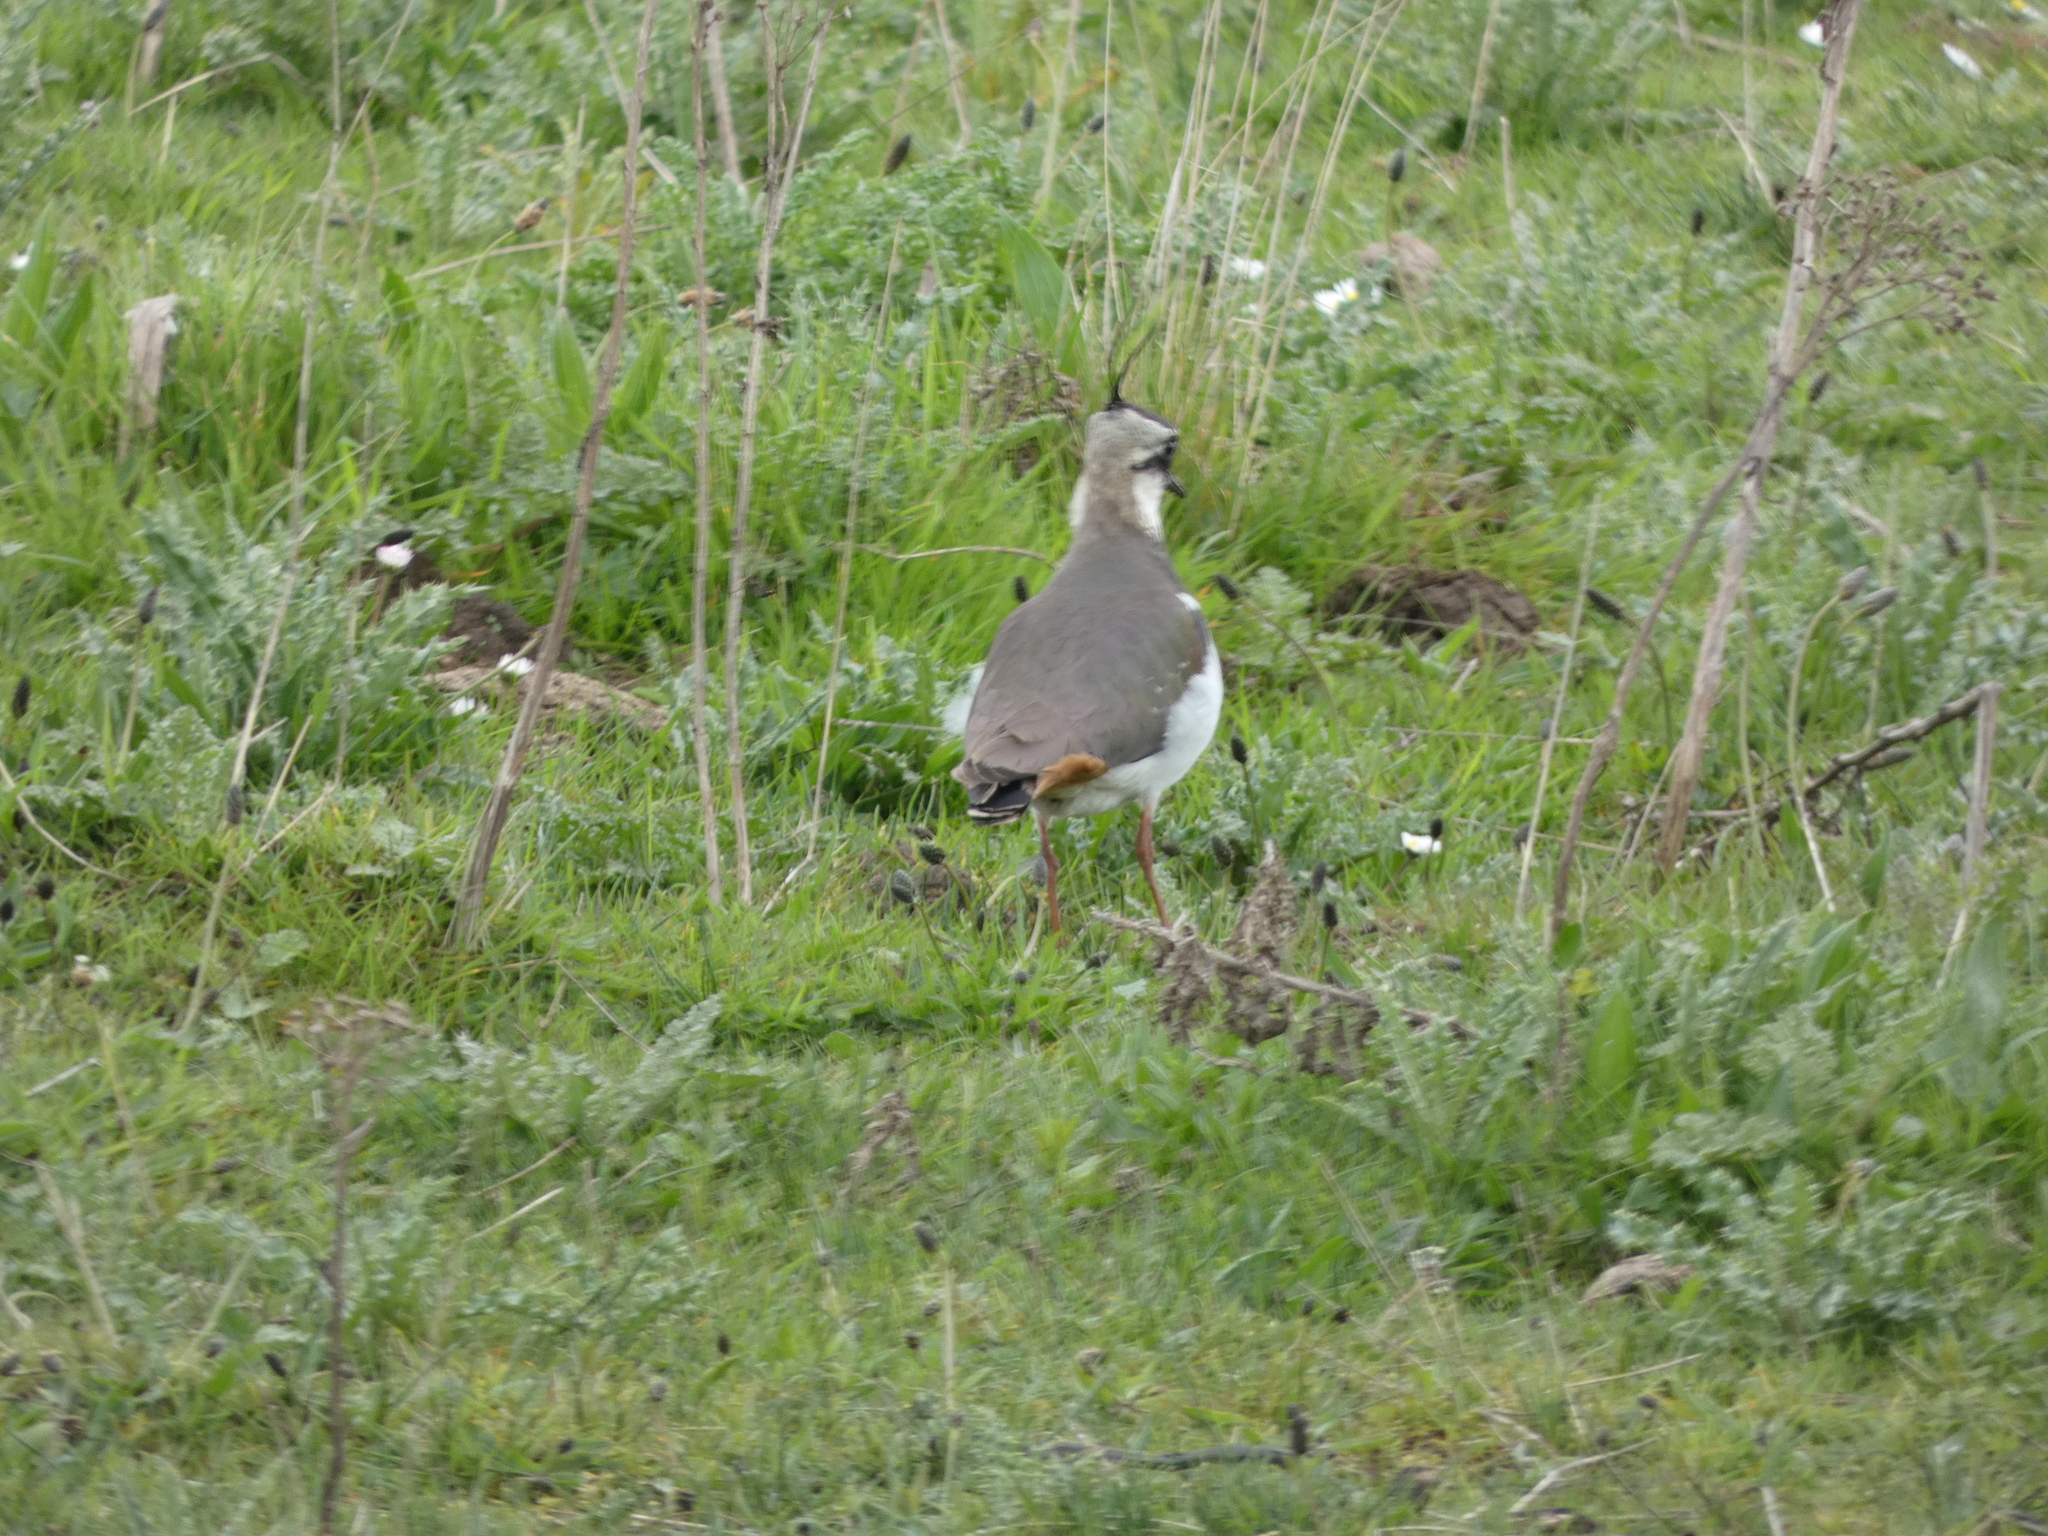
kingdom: Animalia
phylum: Chordata
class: Aves
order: Charadriiformes
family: Charadriidae
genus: Vanellus
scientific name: Vanellus vanellus
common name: Northern lapwing
